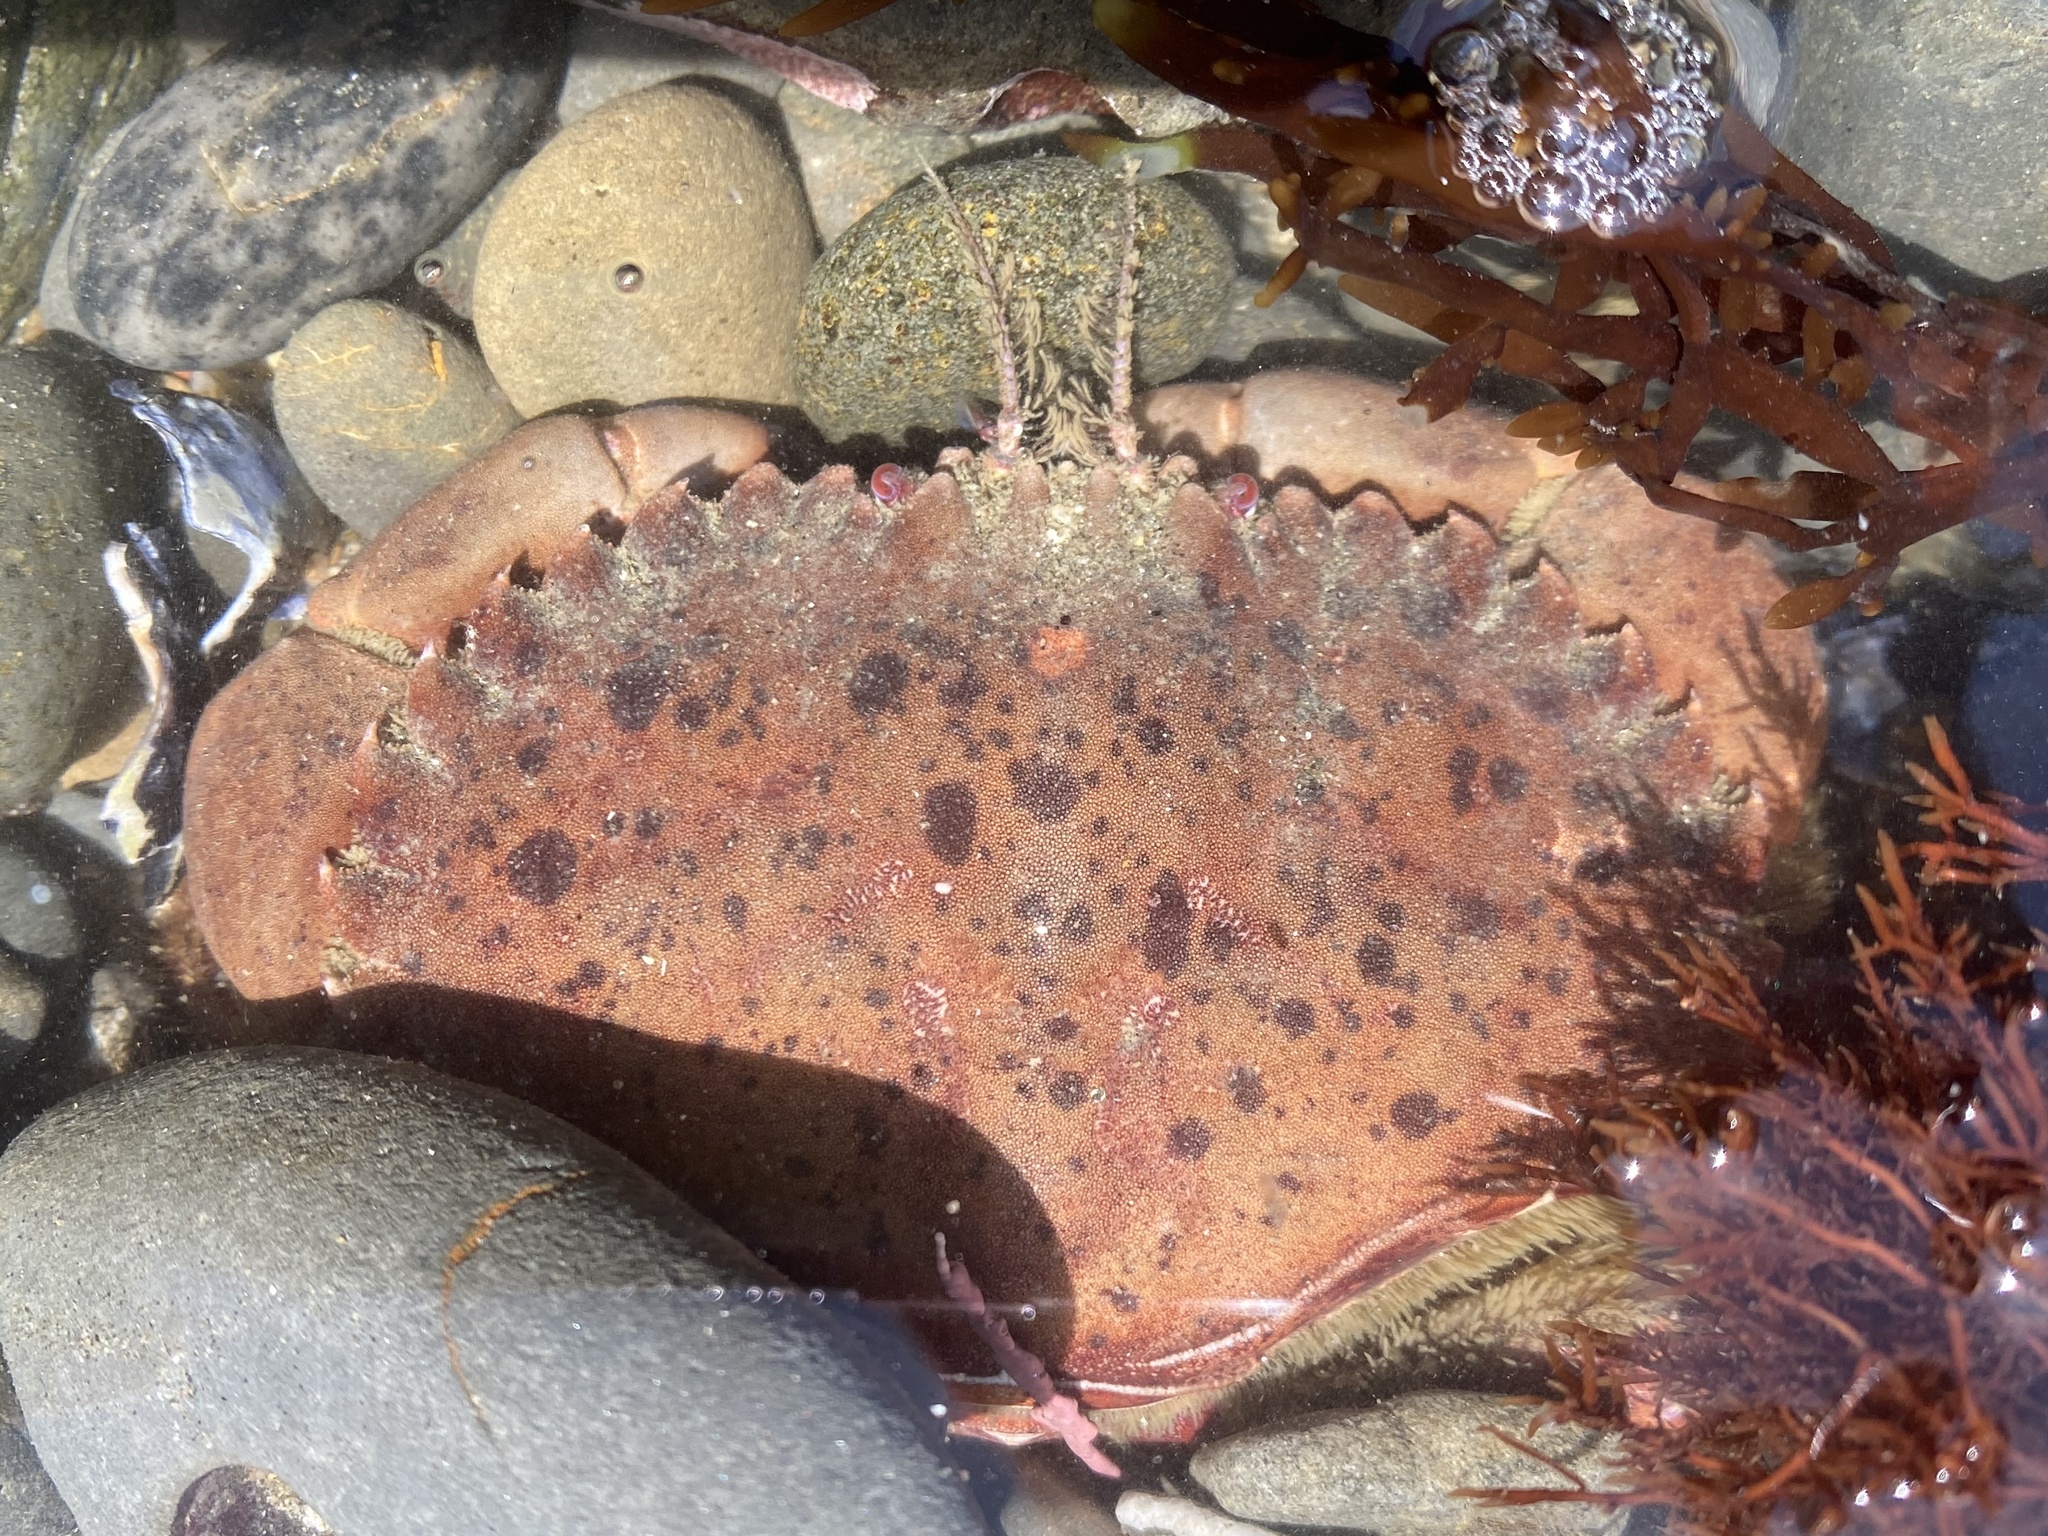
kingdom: Animalia
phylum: Arthropoda
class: Malacostraca
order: Decapoda
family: Cancridae
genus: Romaleon
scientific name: Romaleon antennarium
